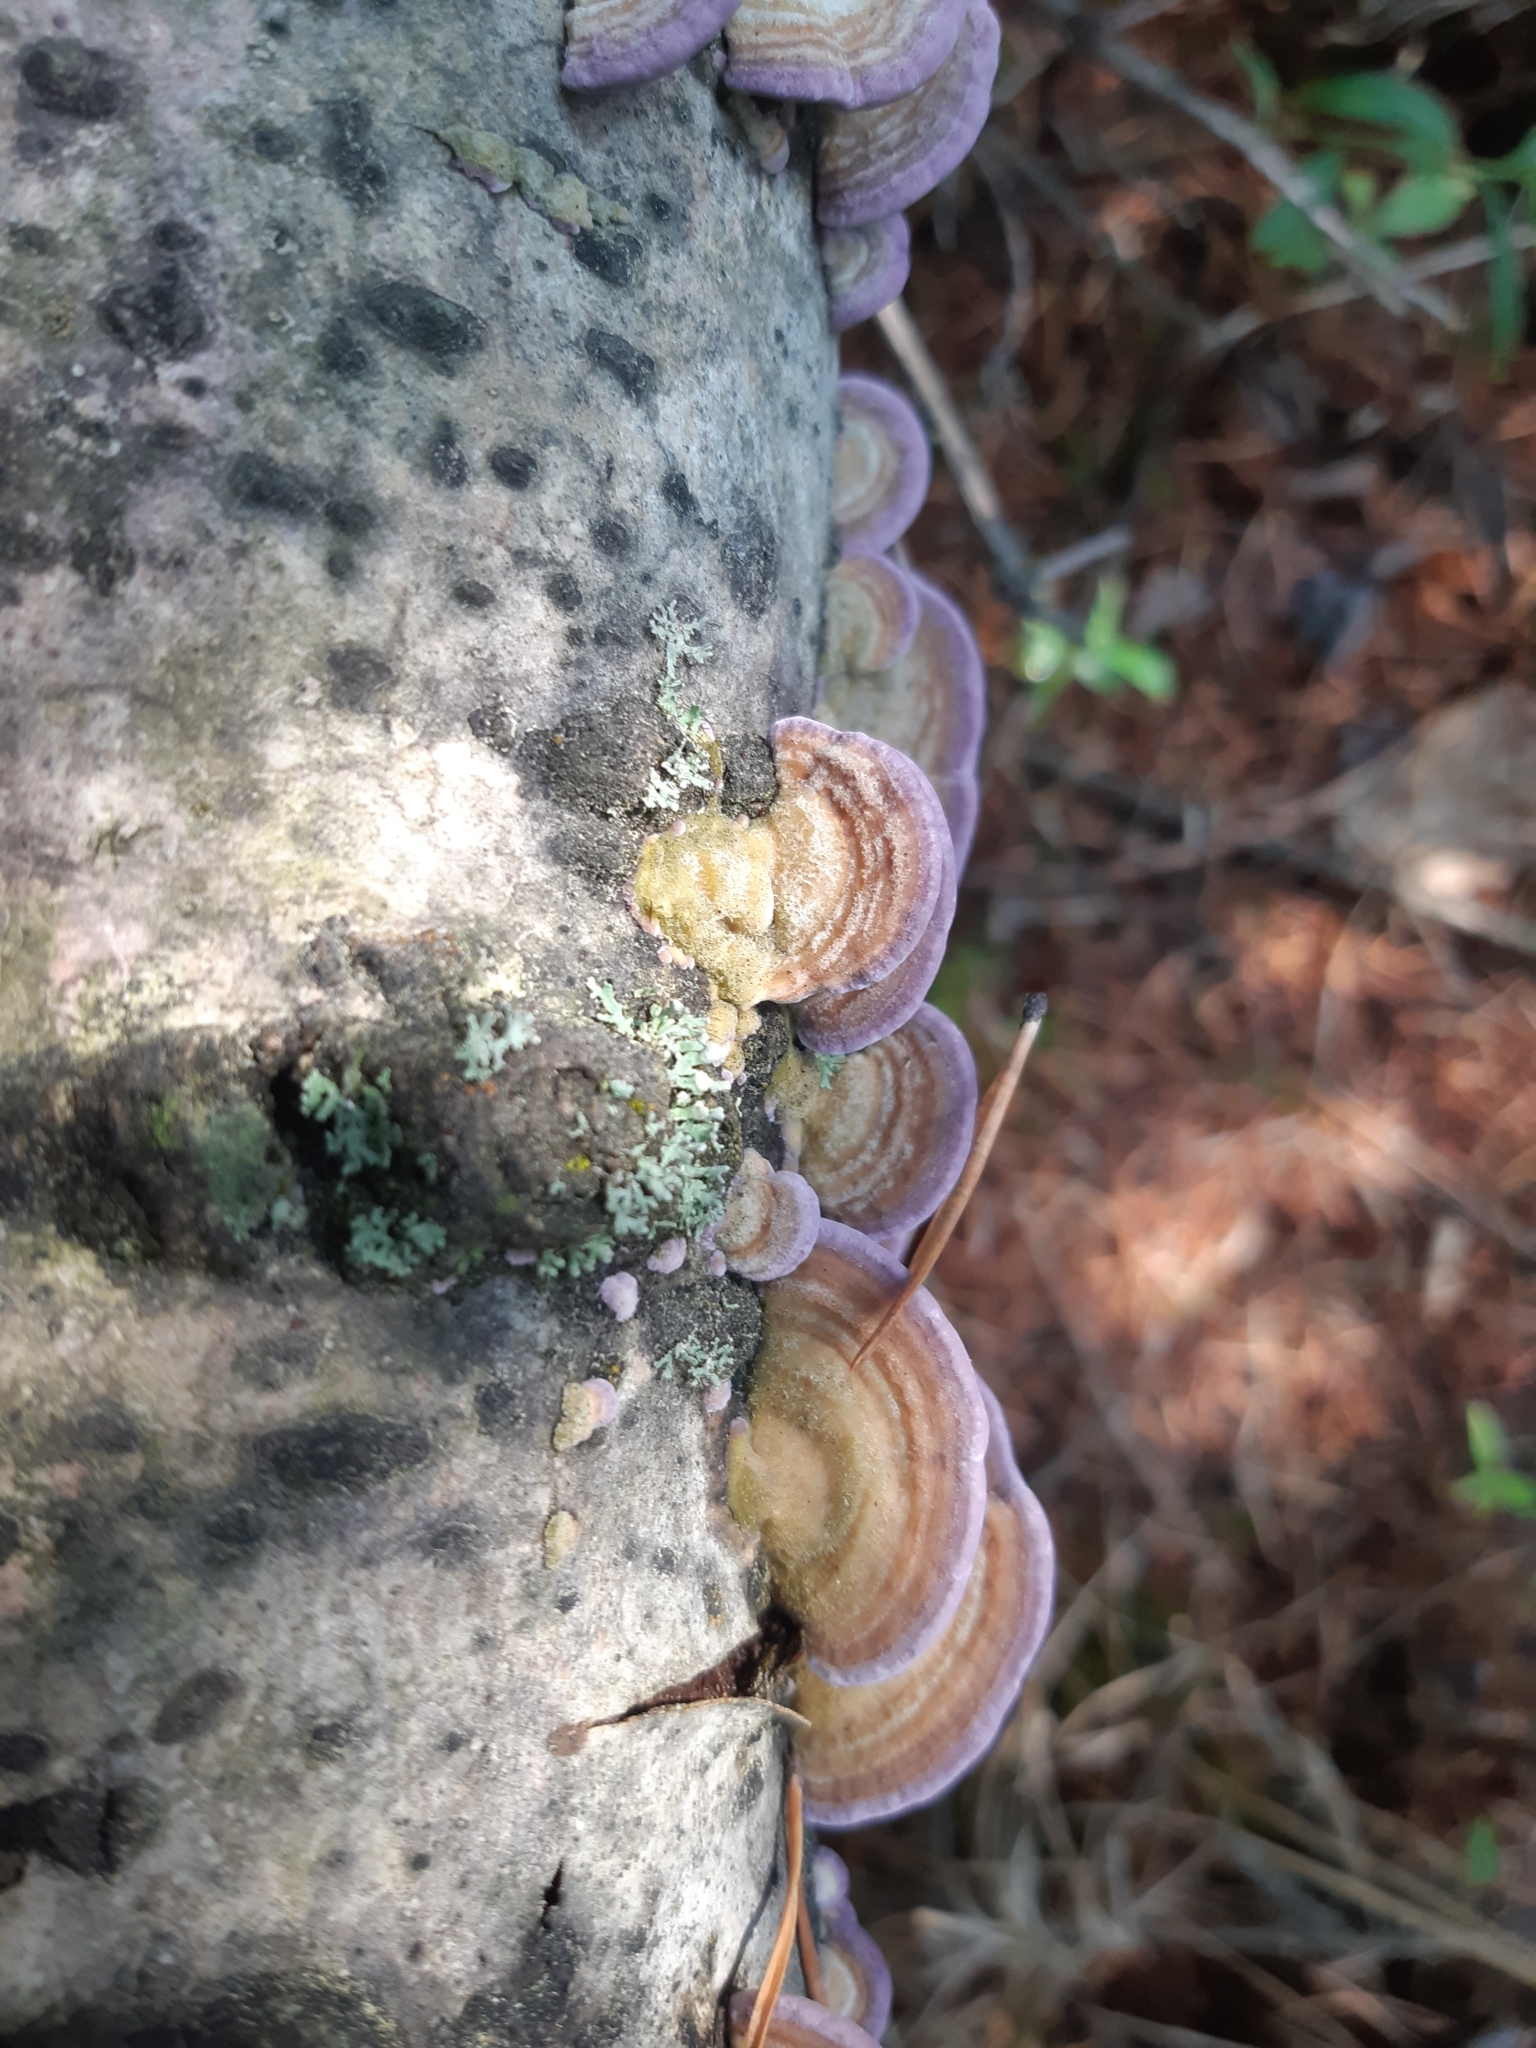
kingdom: Fungi
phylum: Basidiomycota
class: Agaricomycetes
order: Hymenochaetales
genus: Trichaptum
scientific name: Trichaptum subchartaceum
